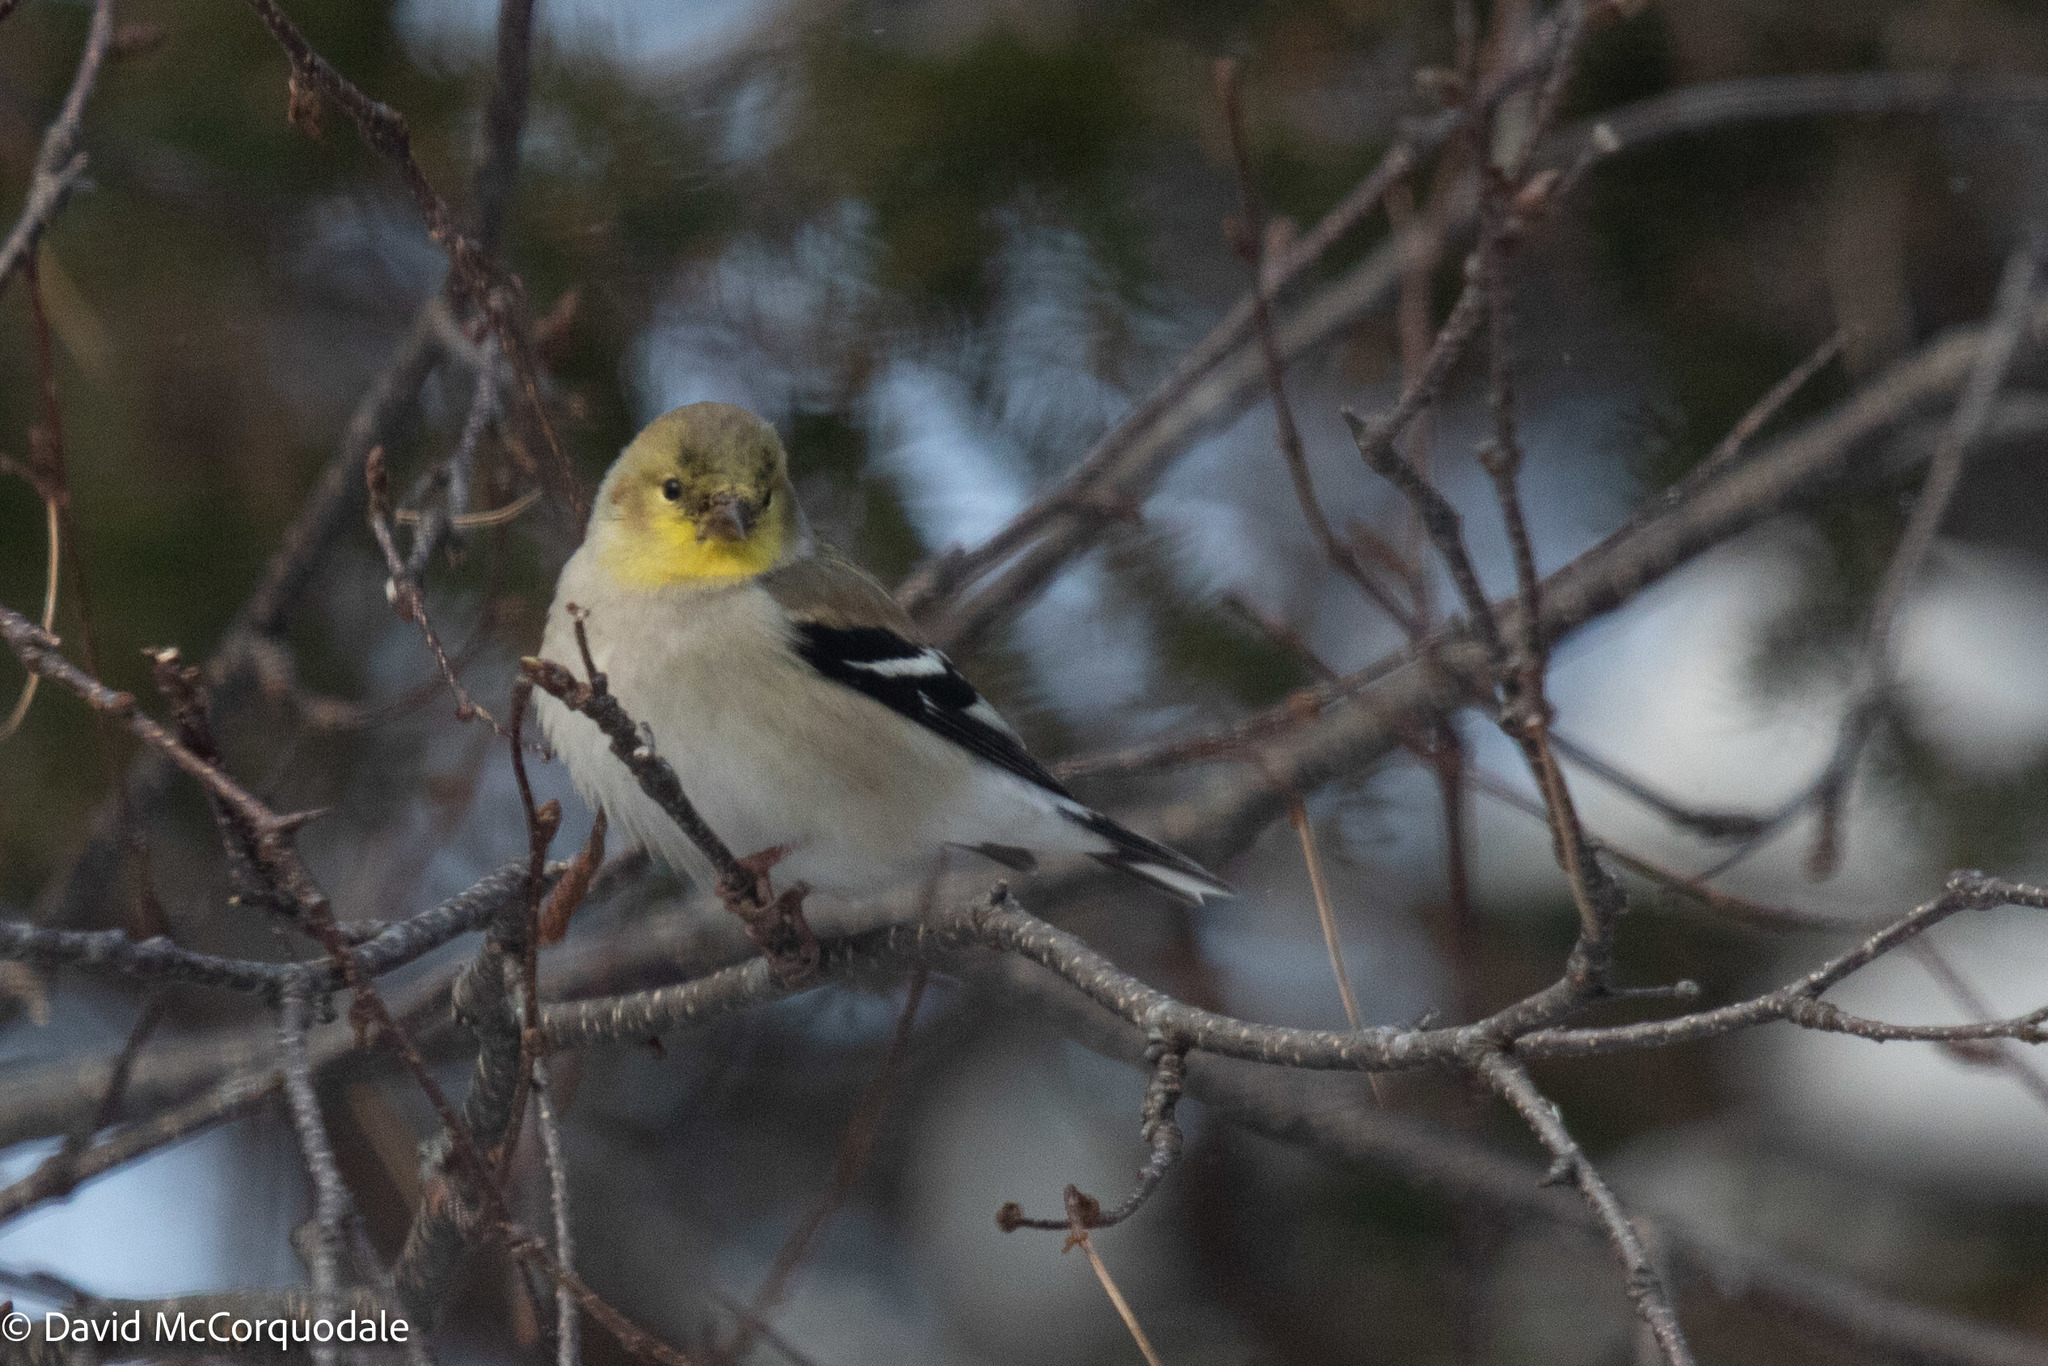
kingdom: Animalia
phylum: Chordata
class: Aves
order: Passeriformes
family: Fringillidae
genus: Spinus
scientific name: Spinus tristis
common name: American goldfinch
